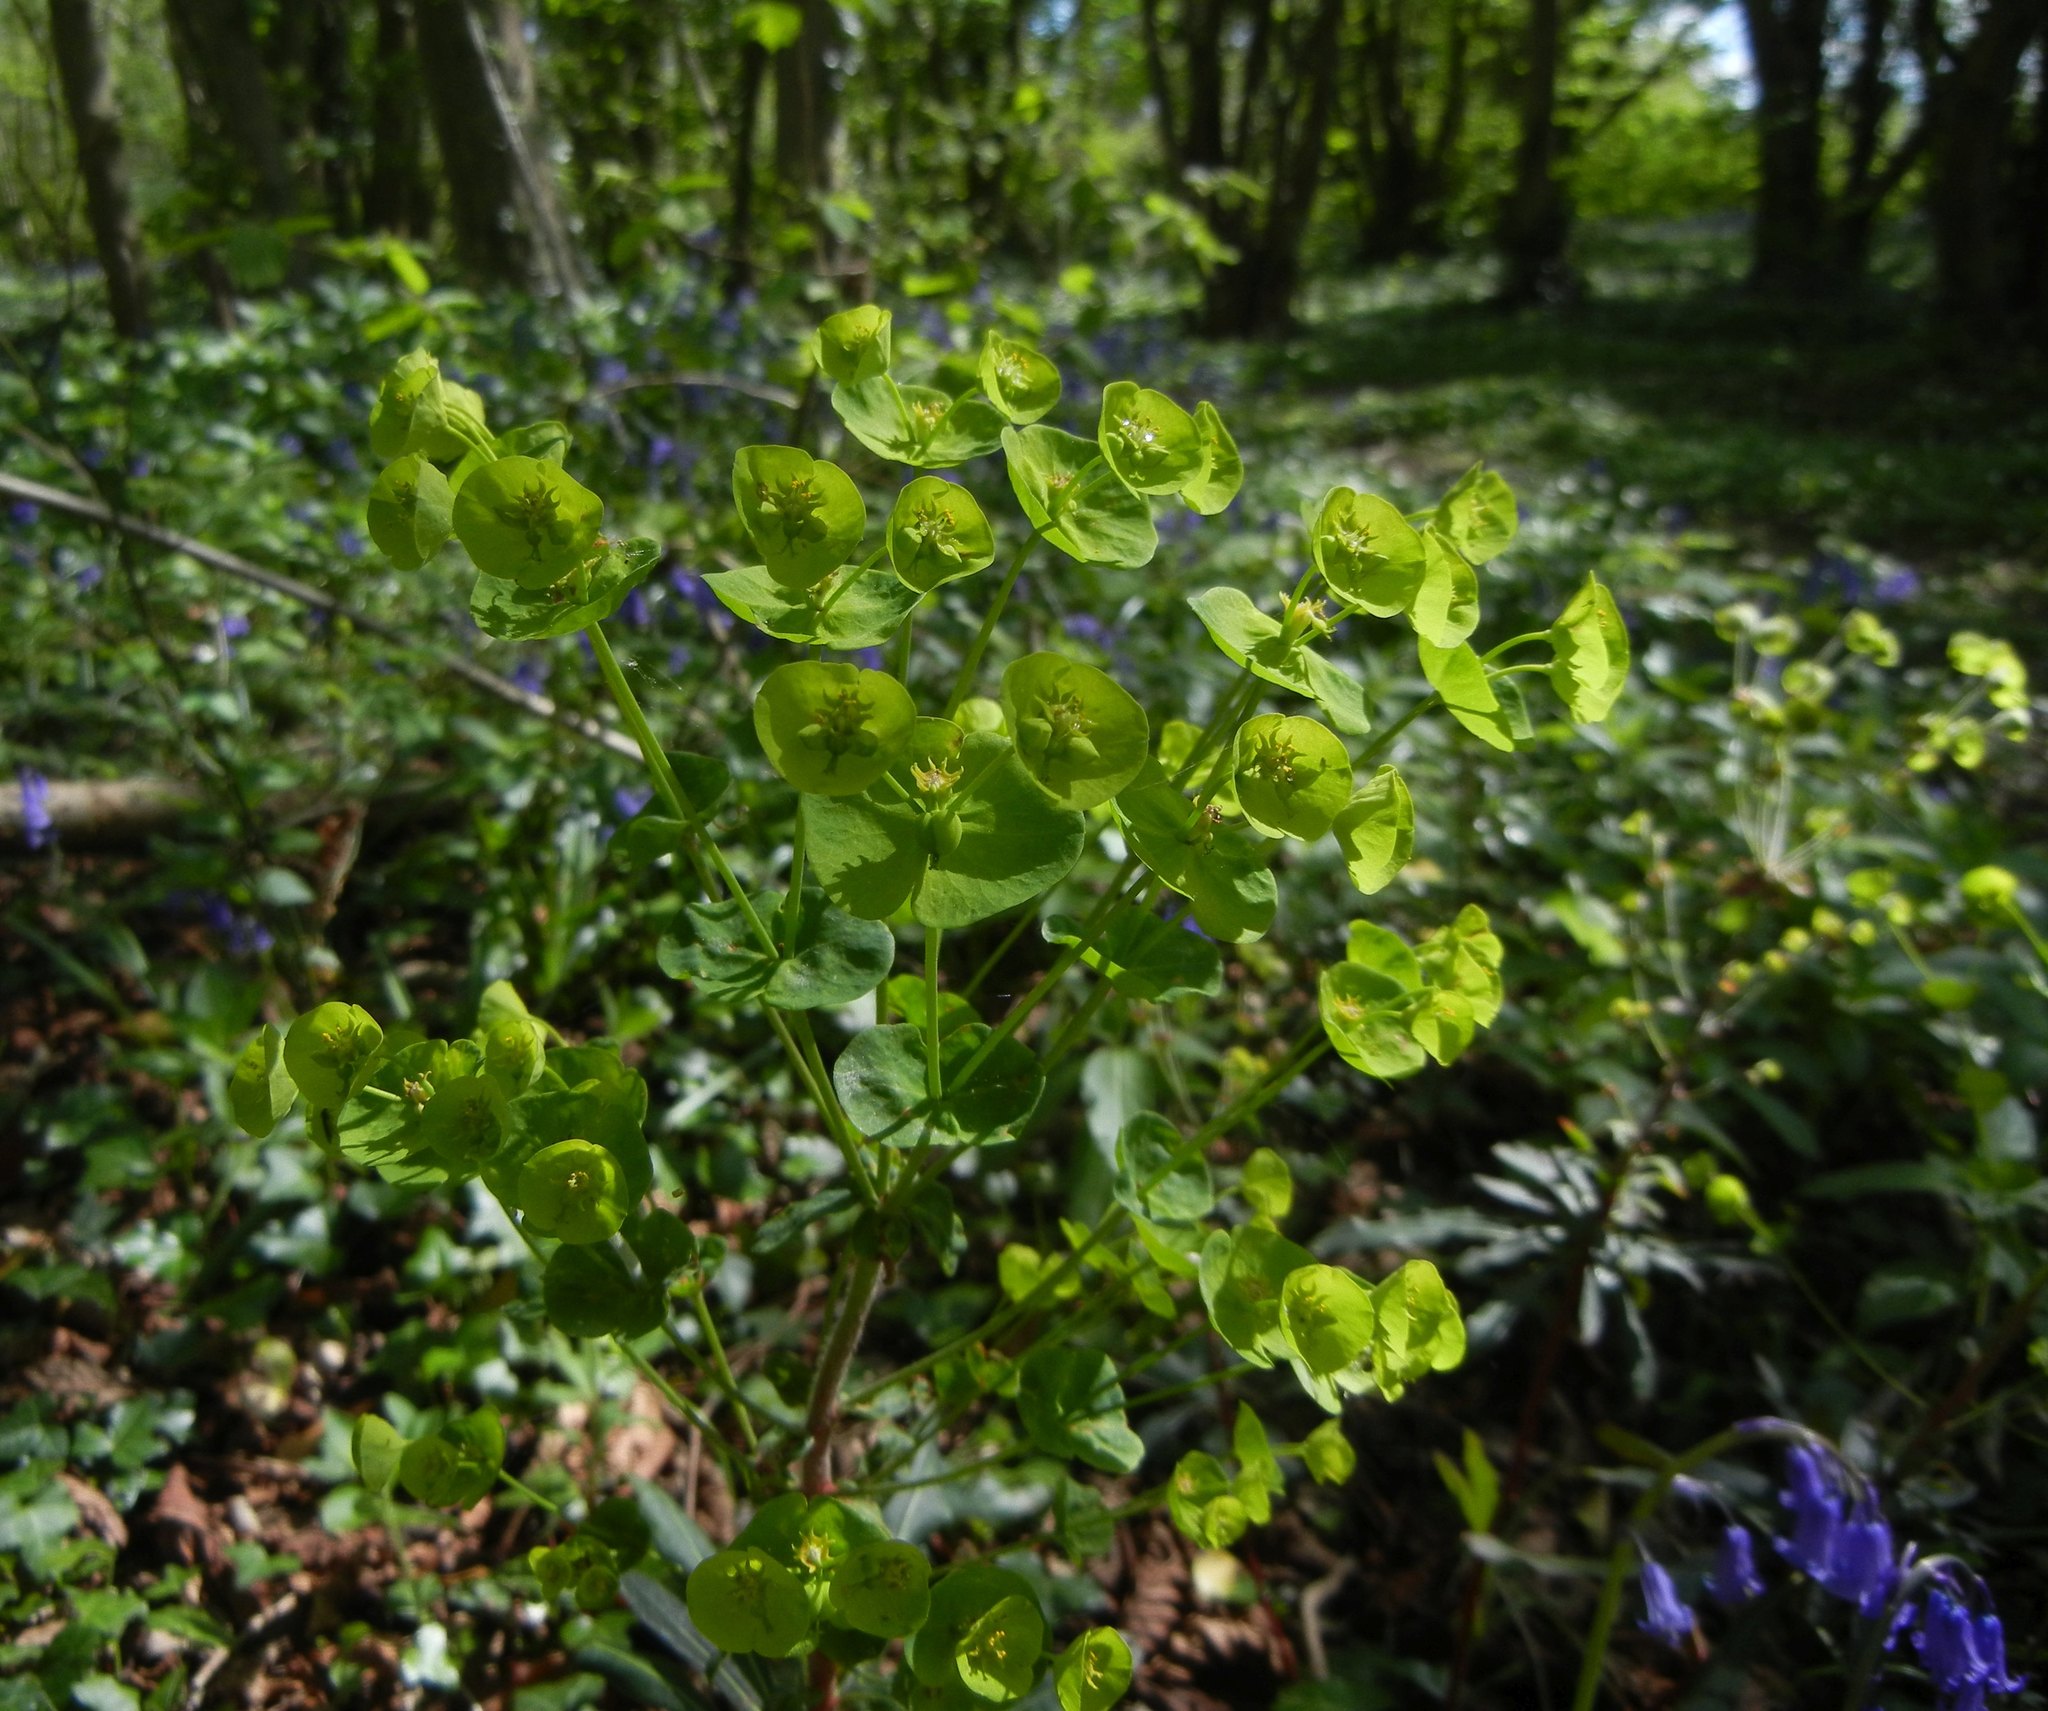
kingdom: Plantae
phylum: Tracheophyta
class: Magnoliopsida
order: Malpighiales
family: Euphorbiaceae
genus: Euphorbia
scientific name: Euphorbia amygdaloides
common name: Wood spurge
